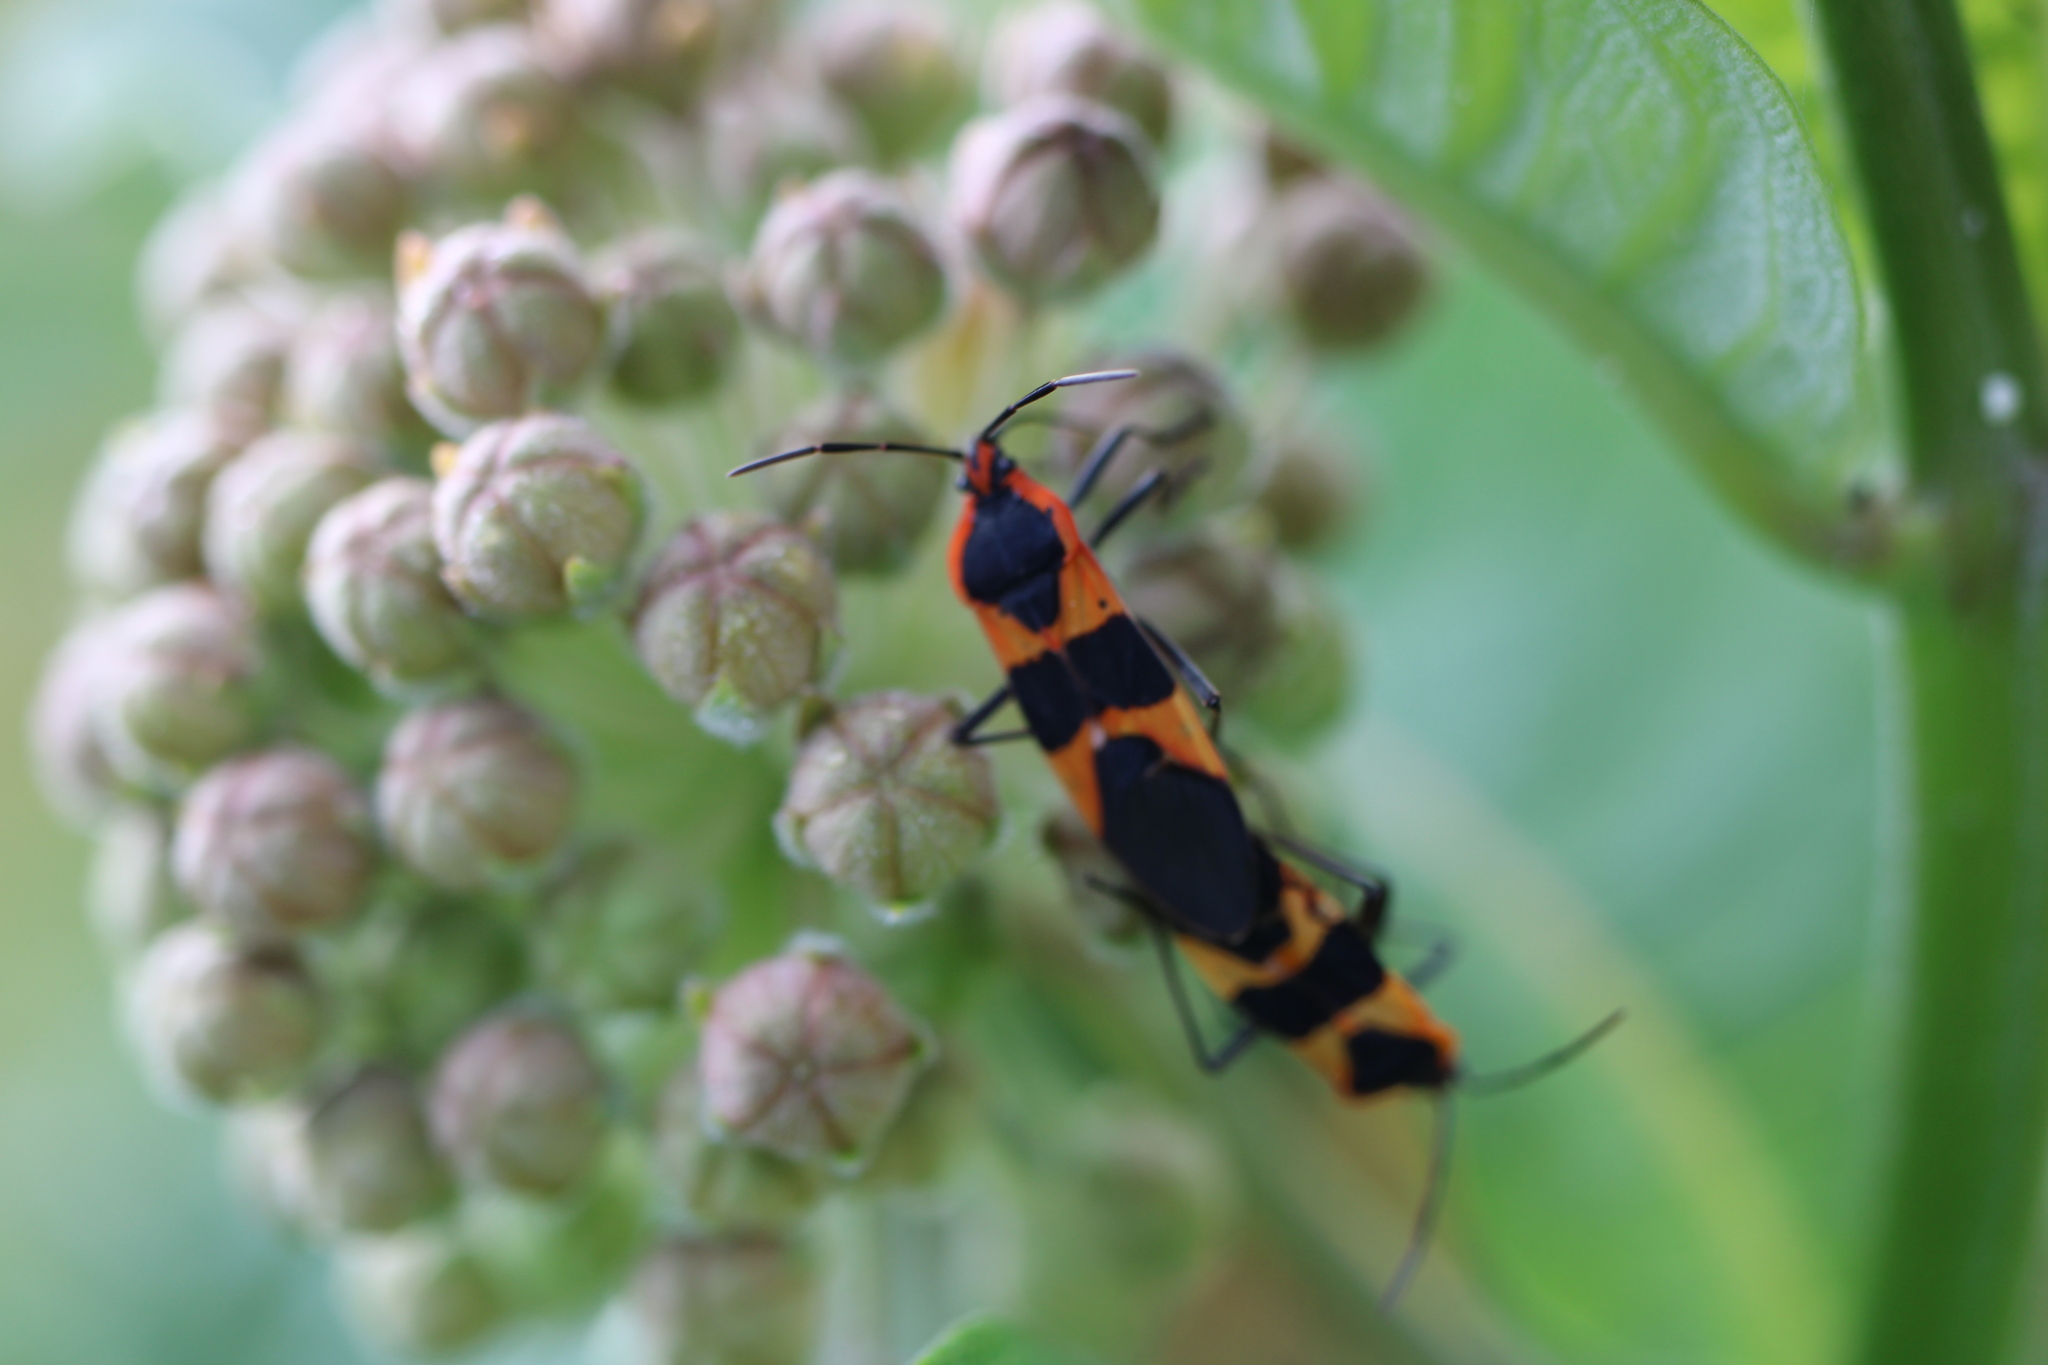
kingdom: Animalia
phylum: Arthropoda
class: Insecta
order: Hemiptera
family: Lygaeidae
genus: Oncopeltus
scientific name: Oncopeltus fasciatus
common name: Large milkweed bug
